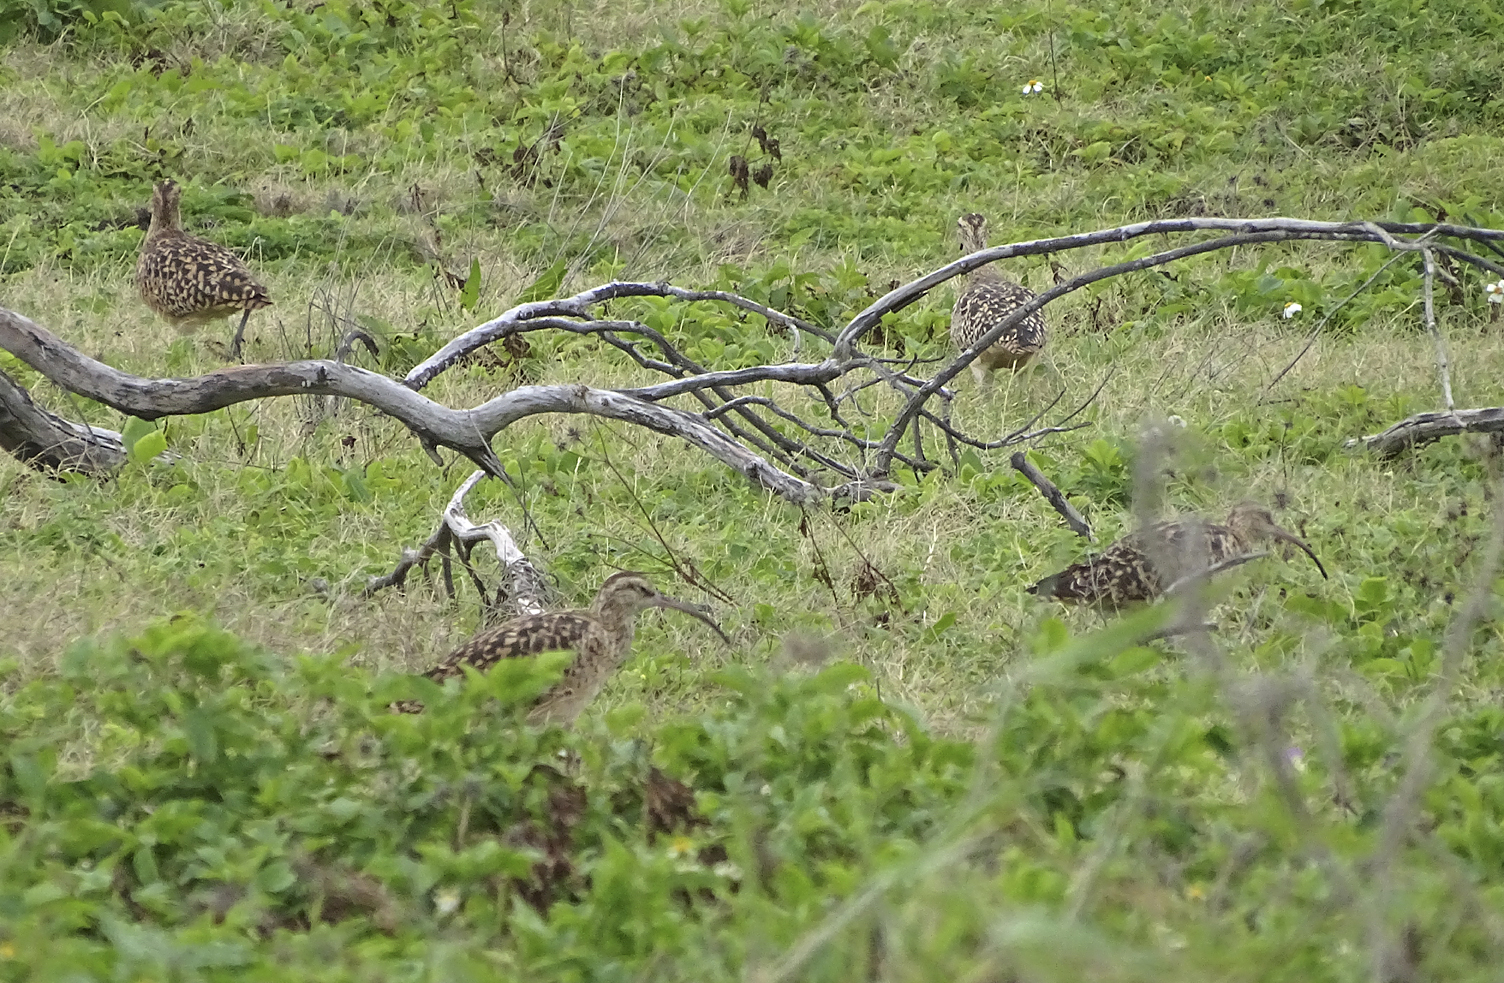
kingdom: Animalia
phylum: Chordata
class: Aves
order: Charadriiformes
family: Scolopacidae
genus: Numenius
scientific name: Numenius tahitiensis
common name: Bristle-thighed curlew
